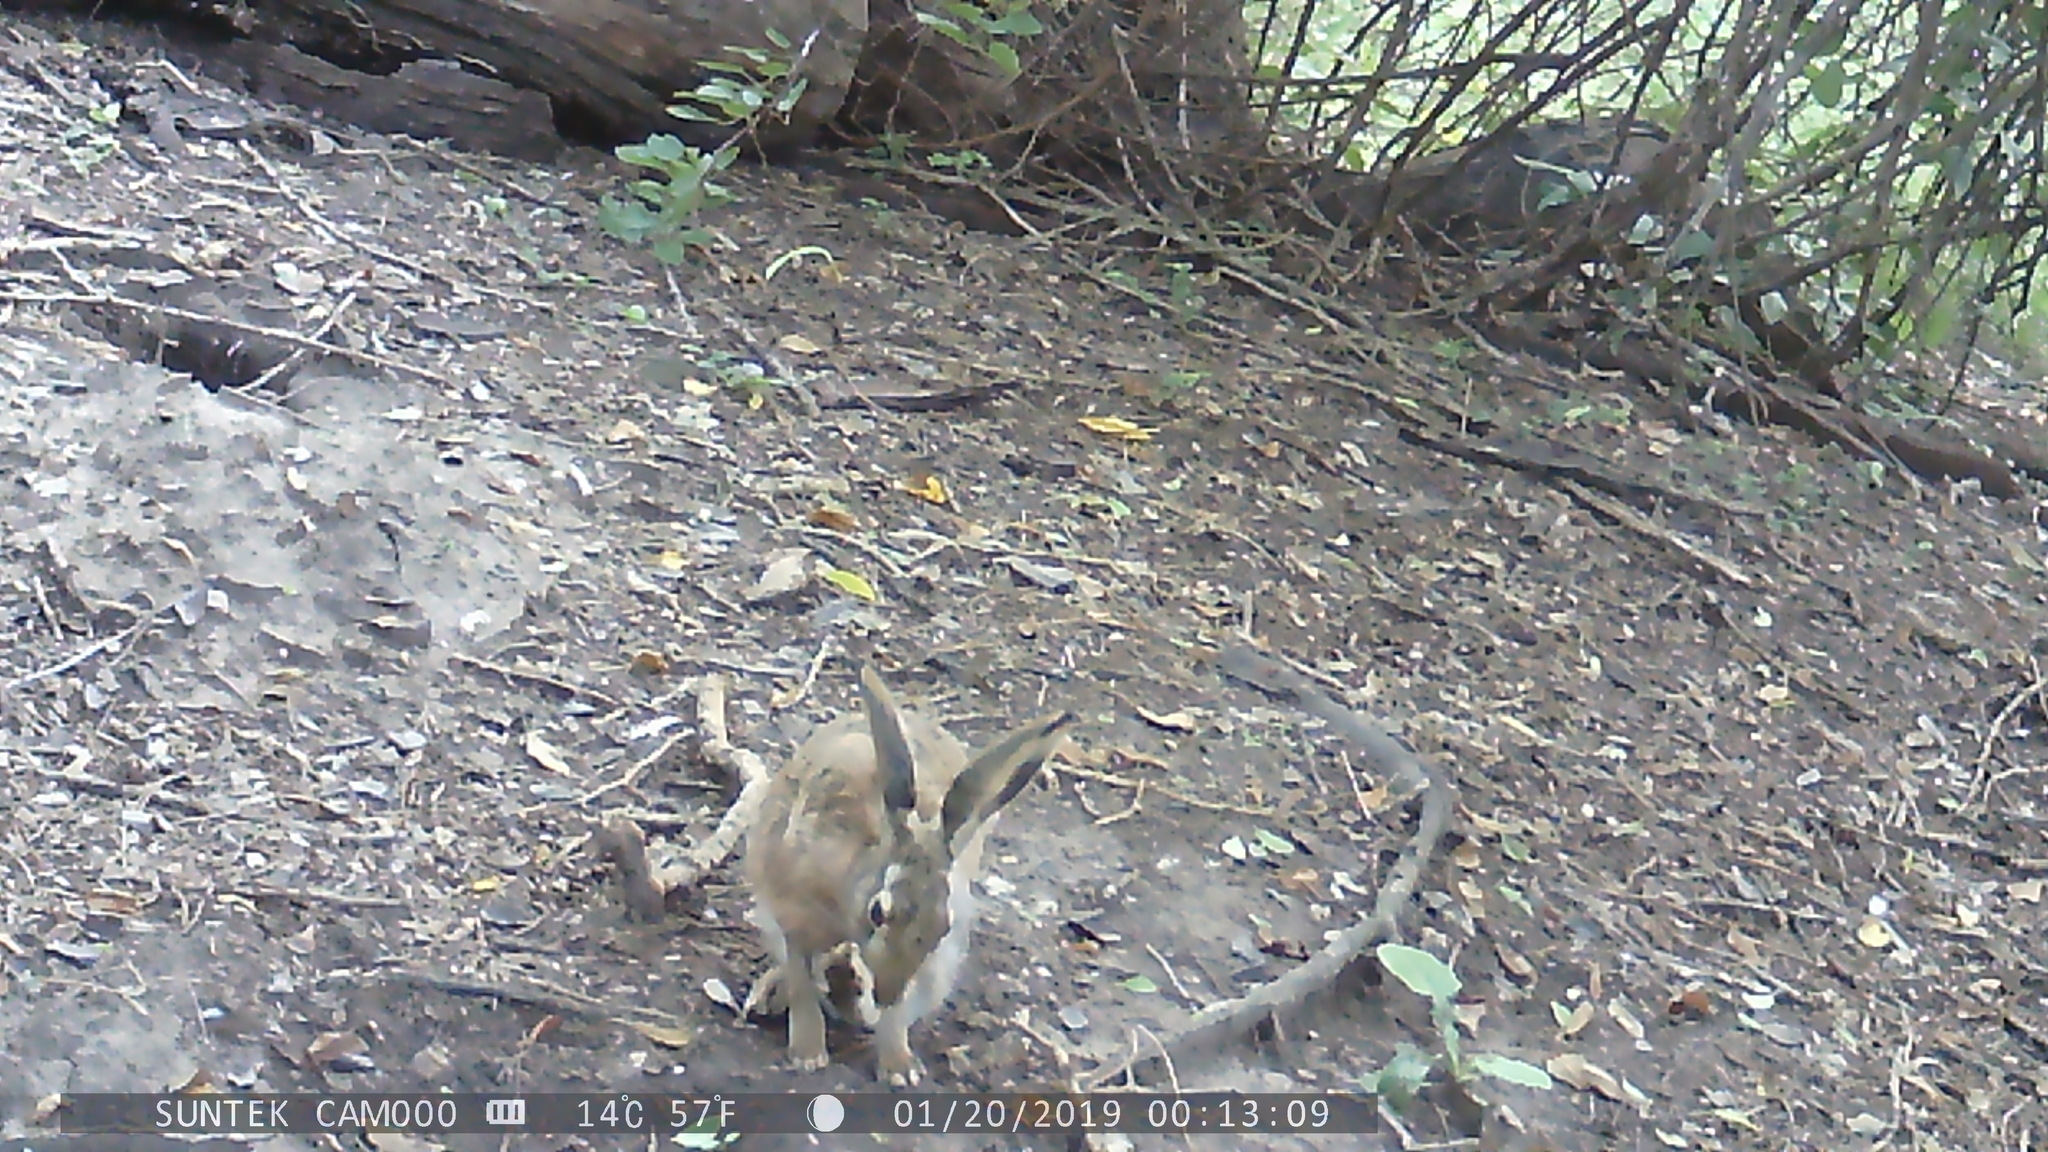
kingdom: Animalia
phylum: Chordata
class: Mammalia
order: Lagomorpha
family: Leporidae
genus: Lepus
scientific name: Lepus europaeus
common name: European hare
